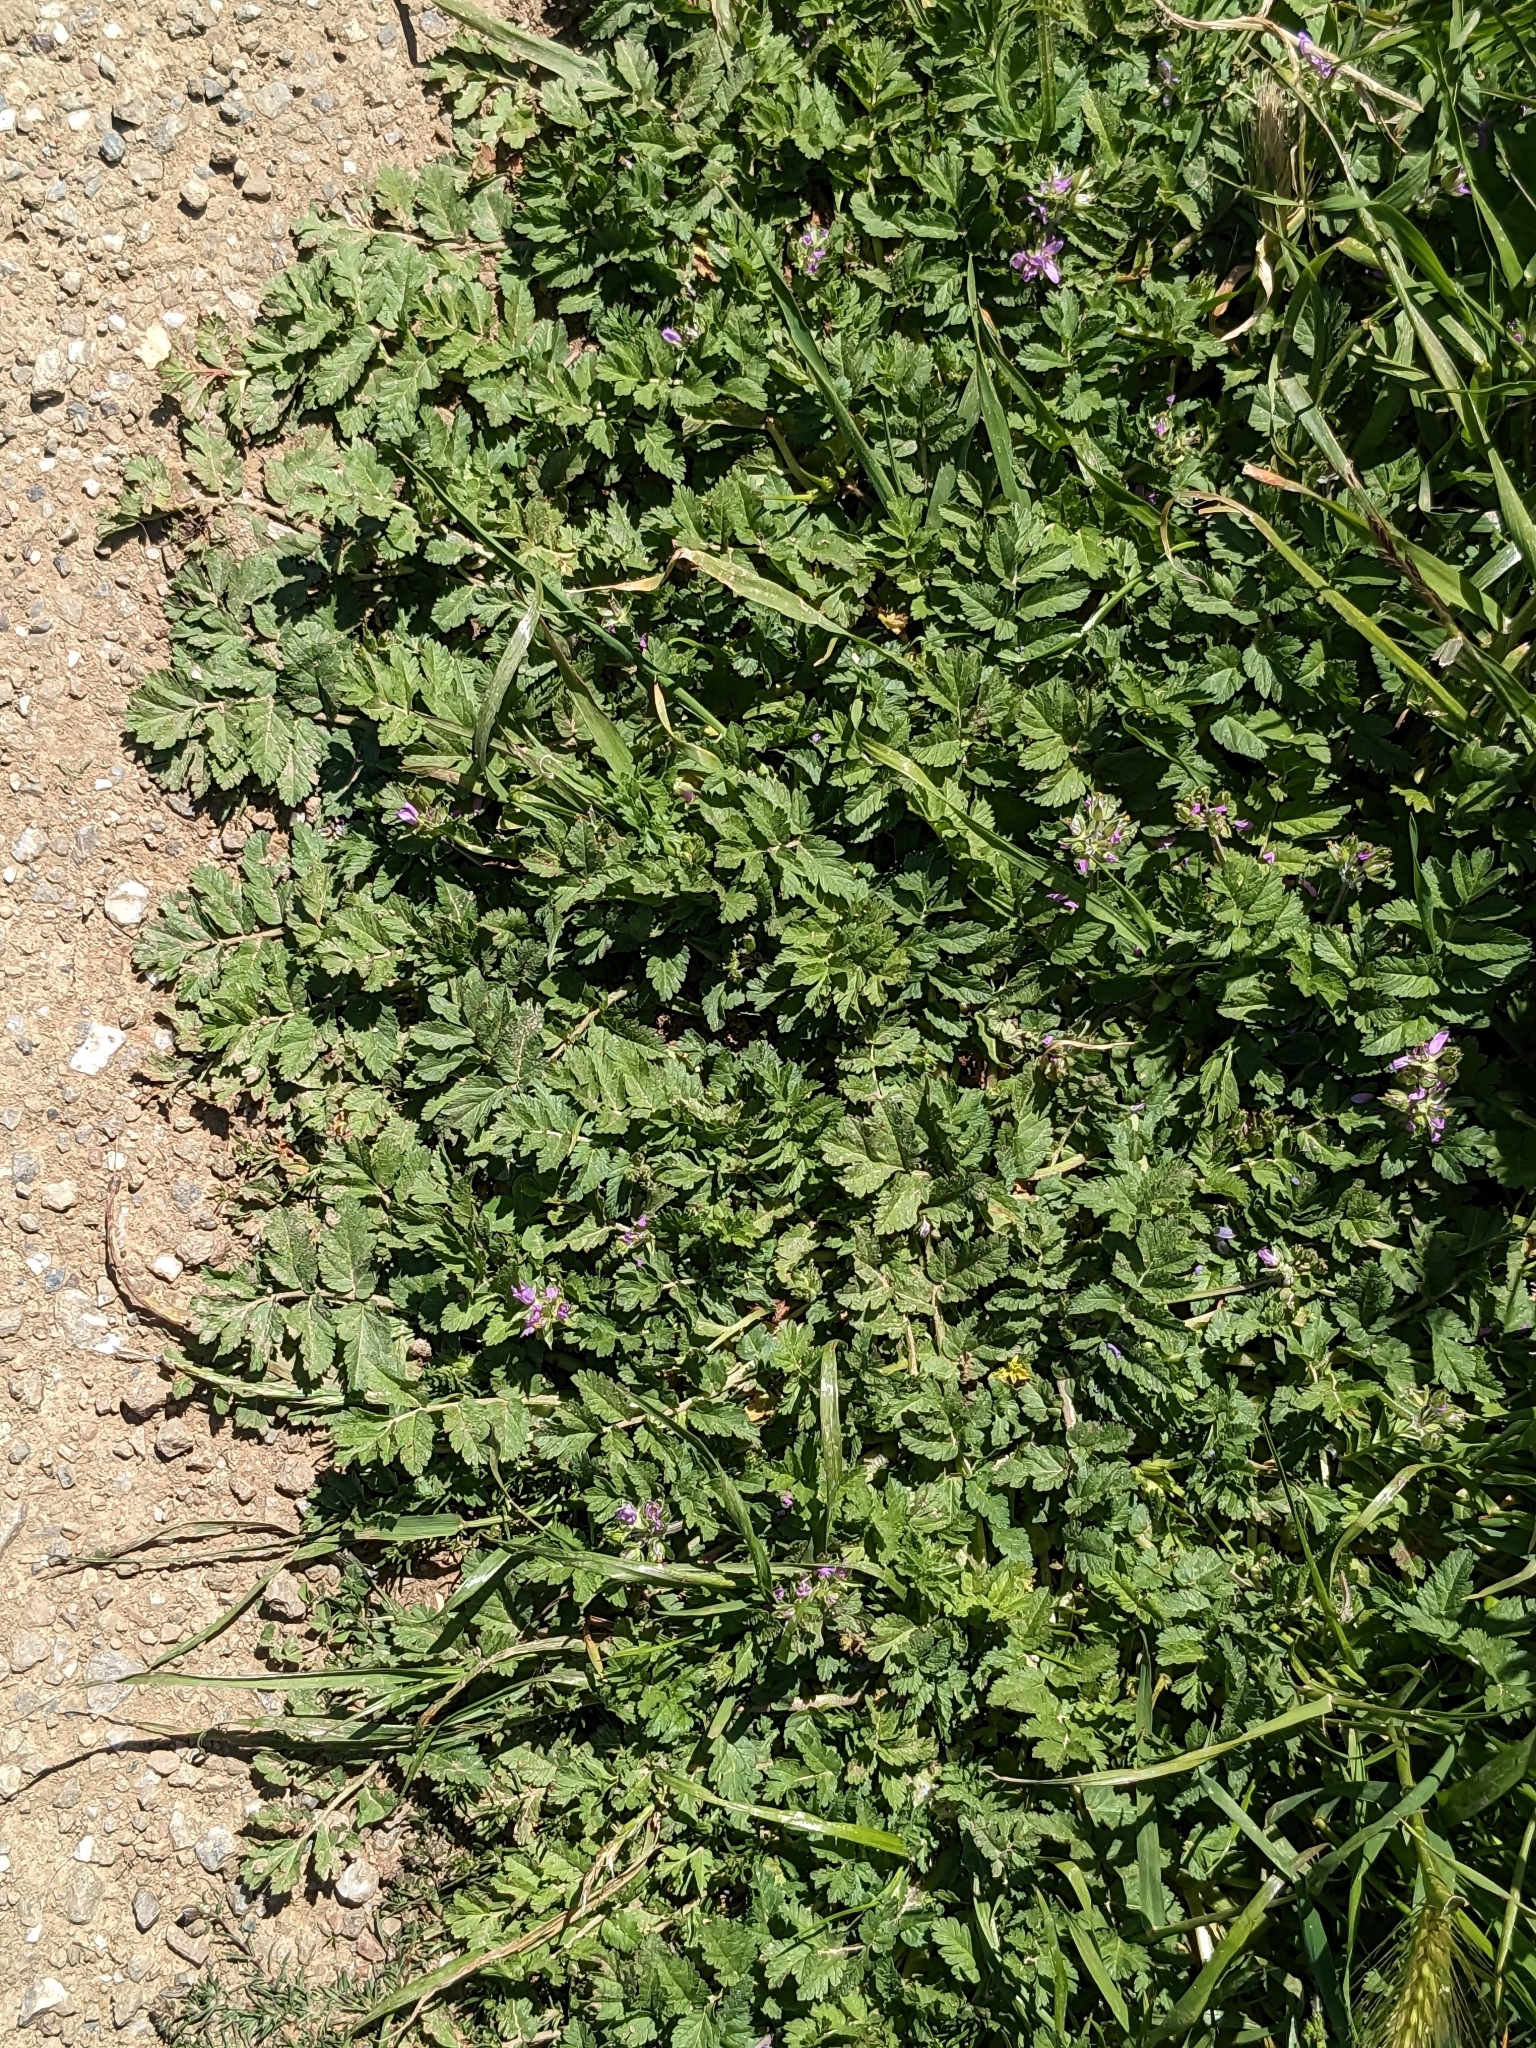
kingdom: Plantae
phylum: Tracheophyta
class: Magnoliopsida
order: Geraniales
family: Geraniaceae
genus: Erodium
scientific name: Erodium moschatum
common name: Musk stork's-bill
